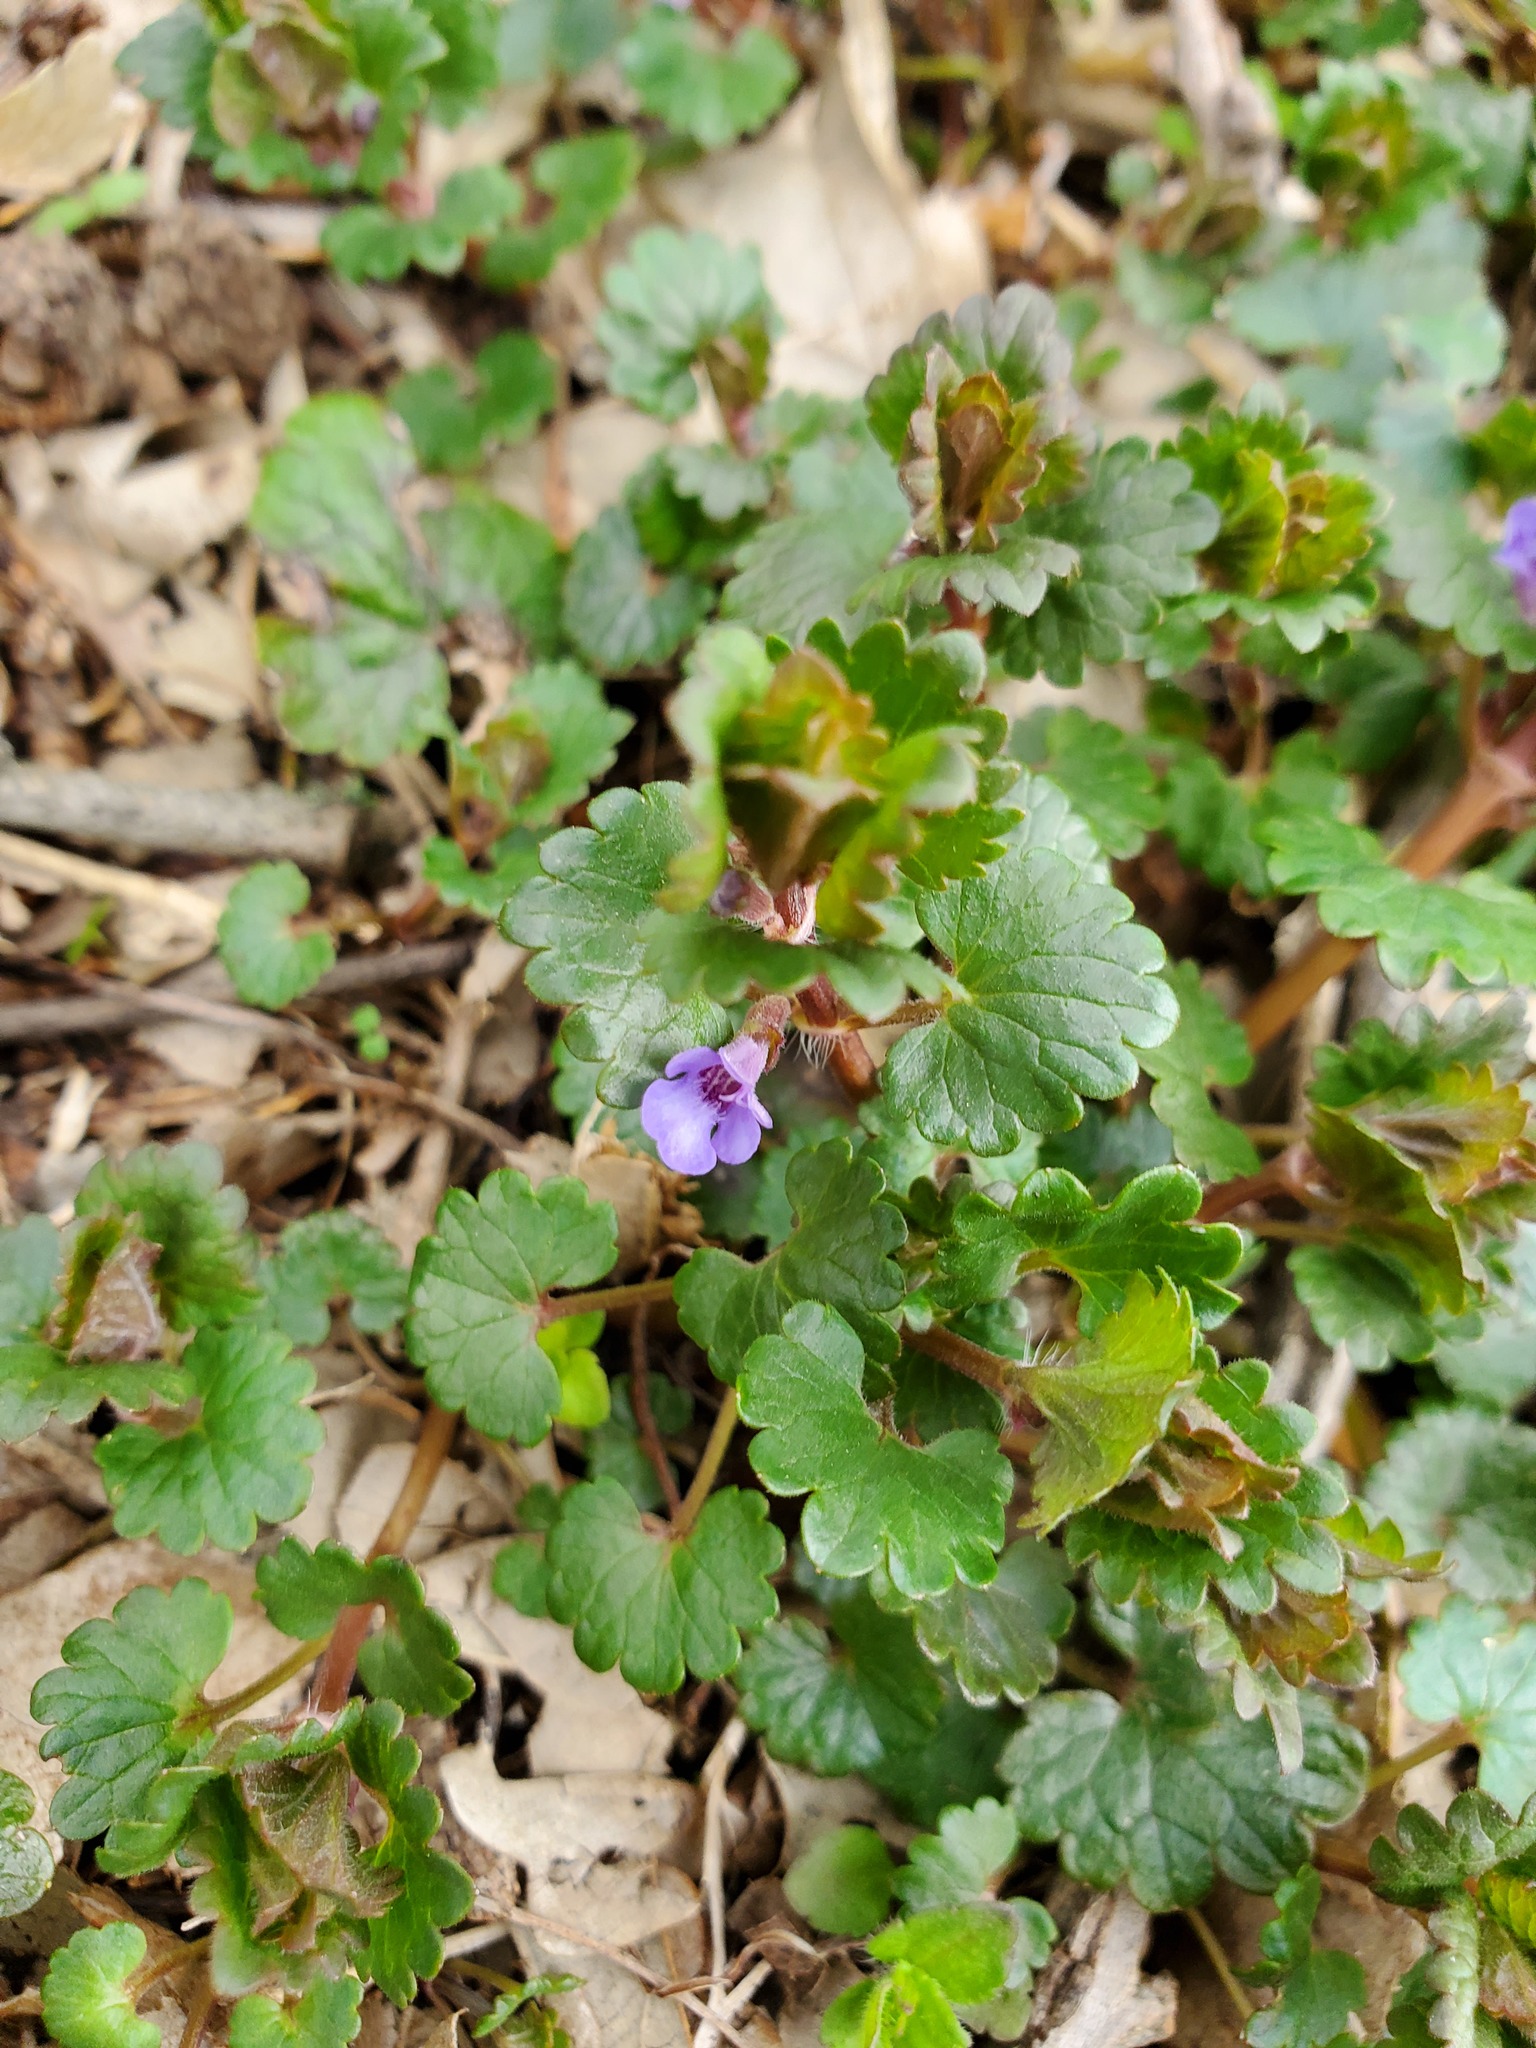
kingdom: Plantae
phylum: Tracheophyta
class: Magnoliopsida
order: Lamiales
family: Lamiaceae
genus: Glechoma
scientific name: Glechoma hederacea
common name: Ground ivy
